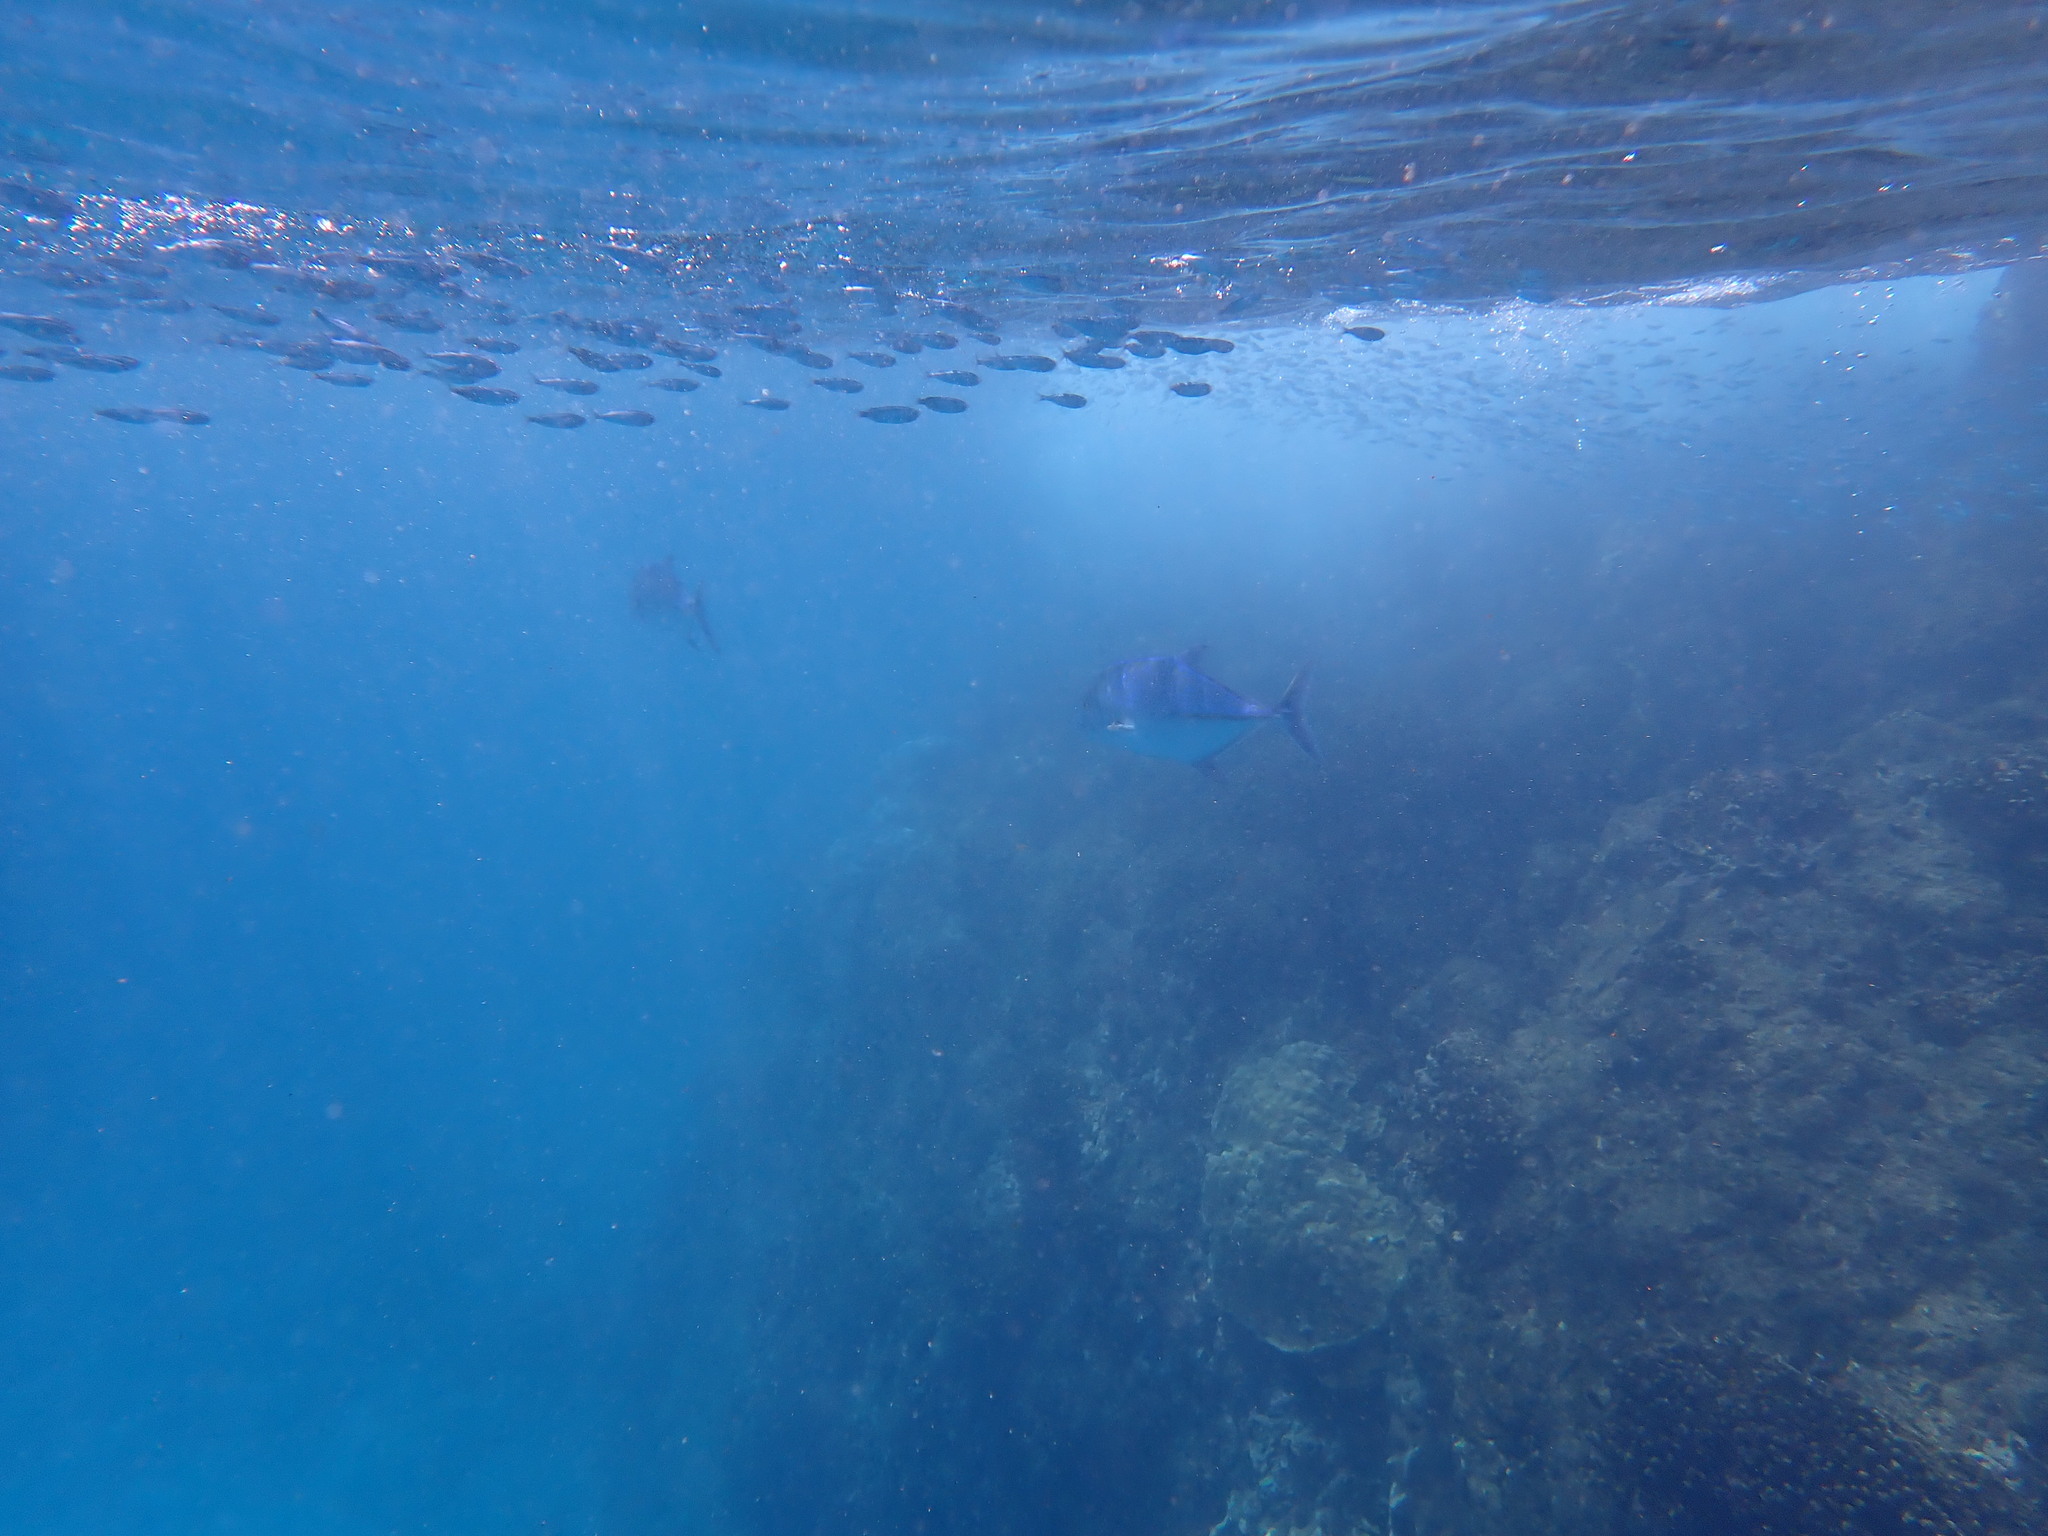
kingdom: Animalia
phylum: Chordata
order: Perciformes
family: Carangidae
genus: Caranx
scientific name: Caranx melampygus
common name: Bluefin trevally
